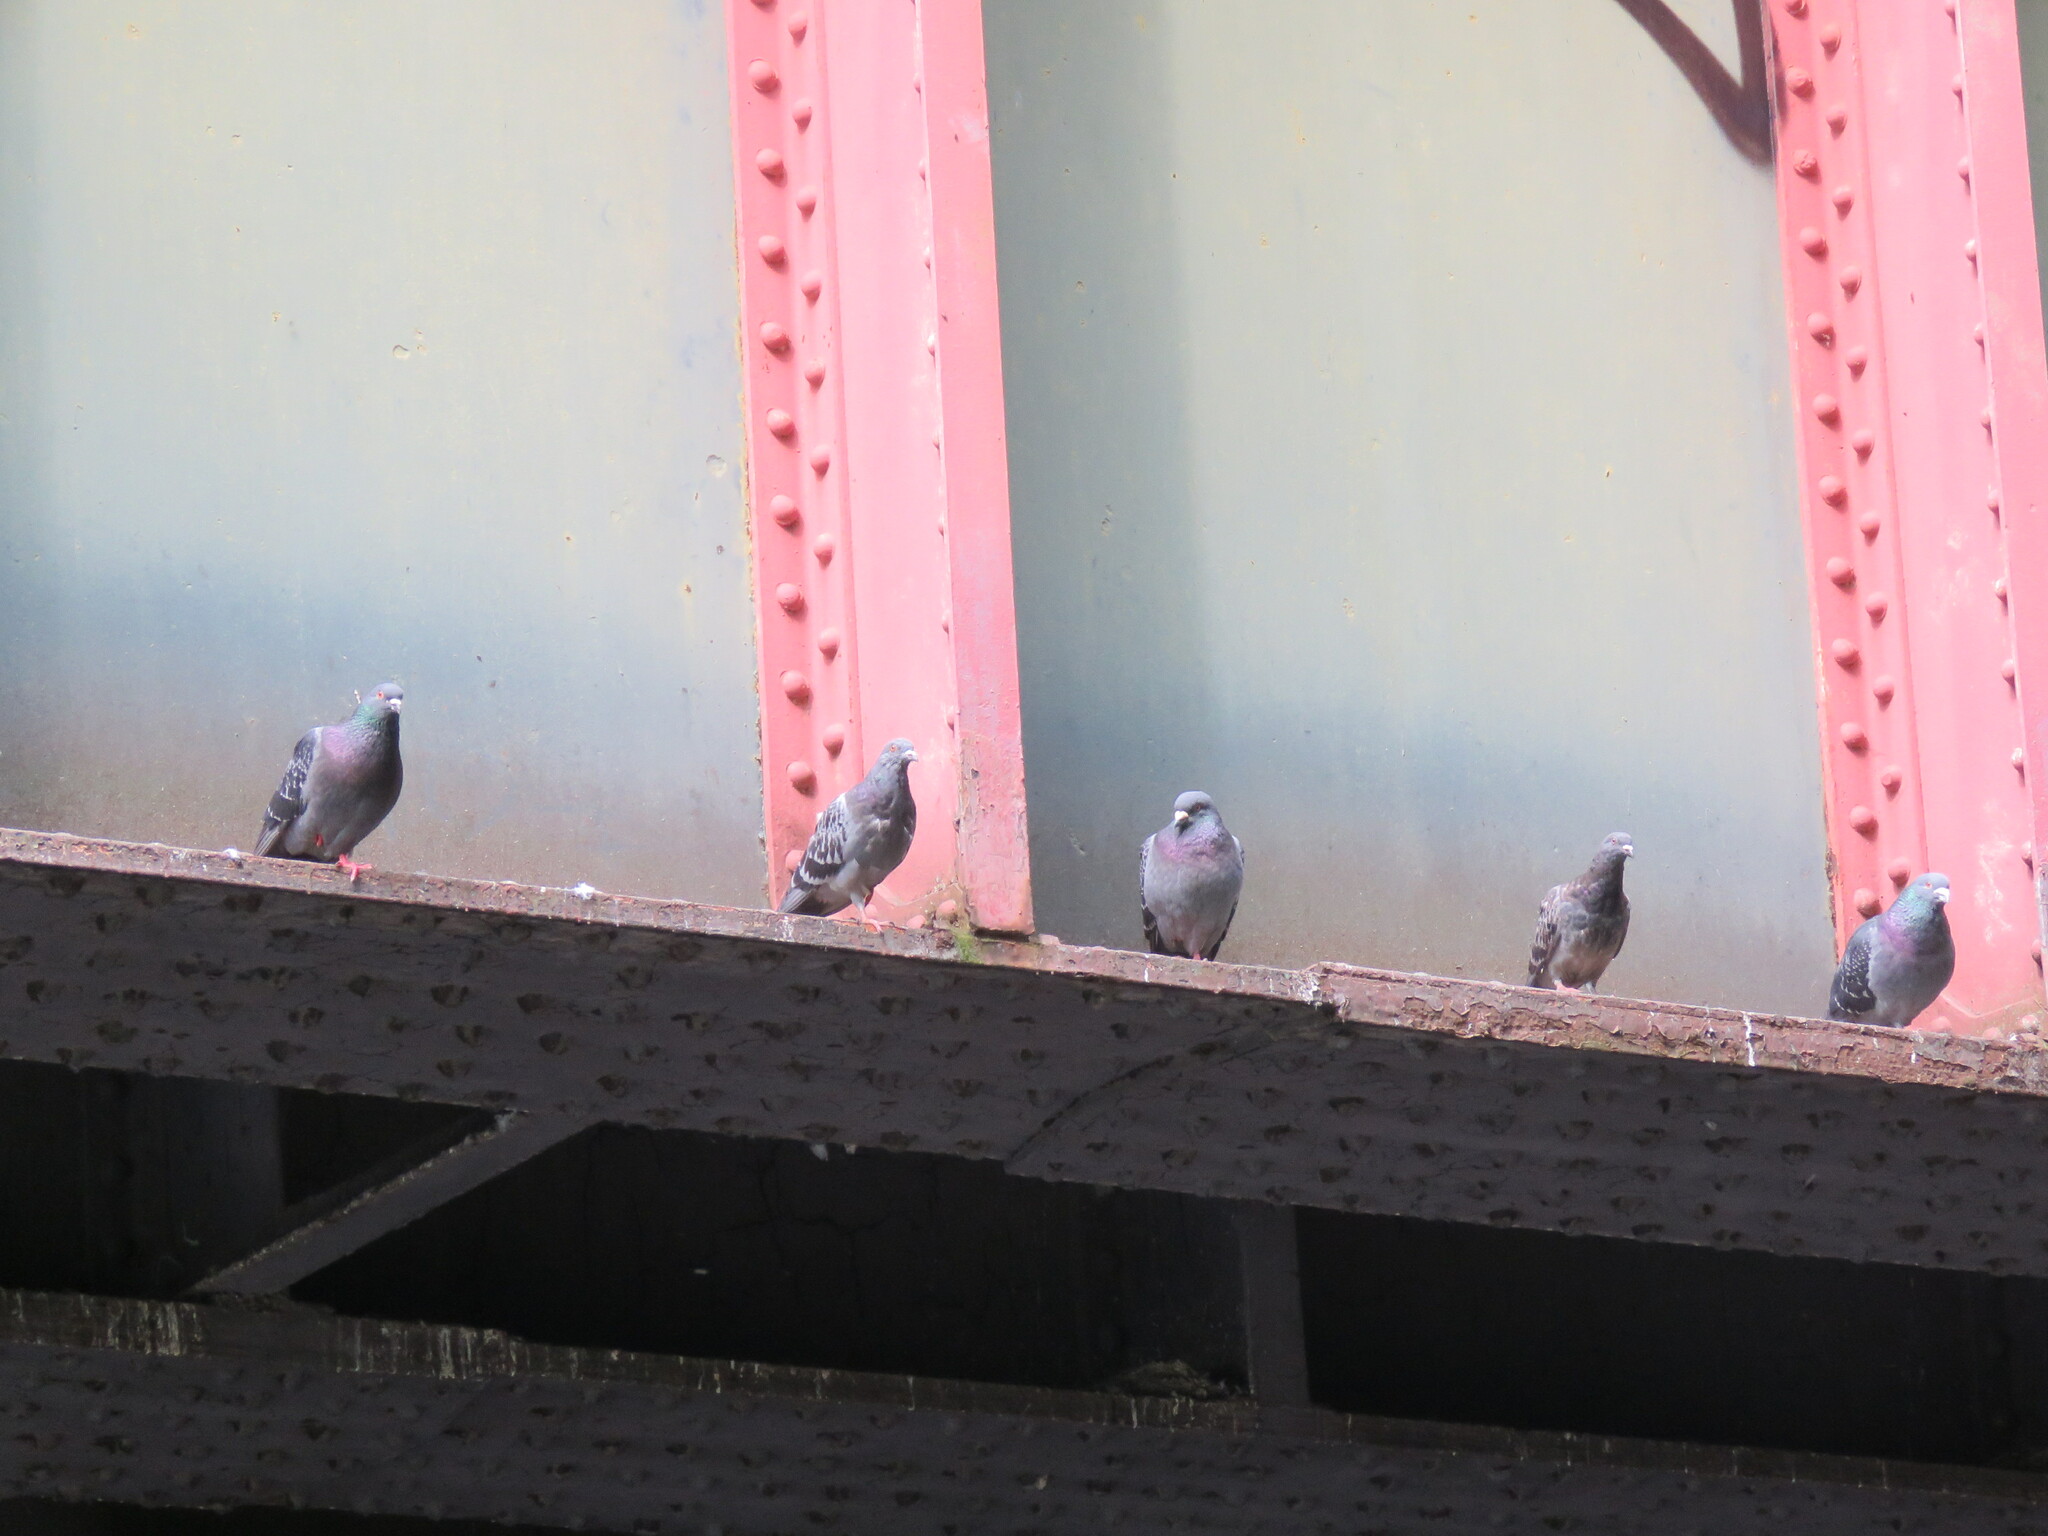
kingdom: Animalia
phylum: Chordata
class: Aves
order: Columbiformes
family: Columbidae
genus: Columba
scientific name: Columba livia
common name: Rock pigeon
